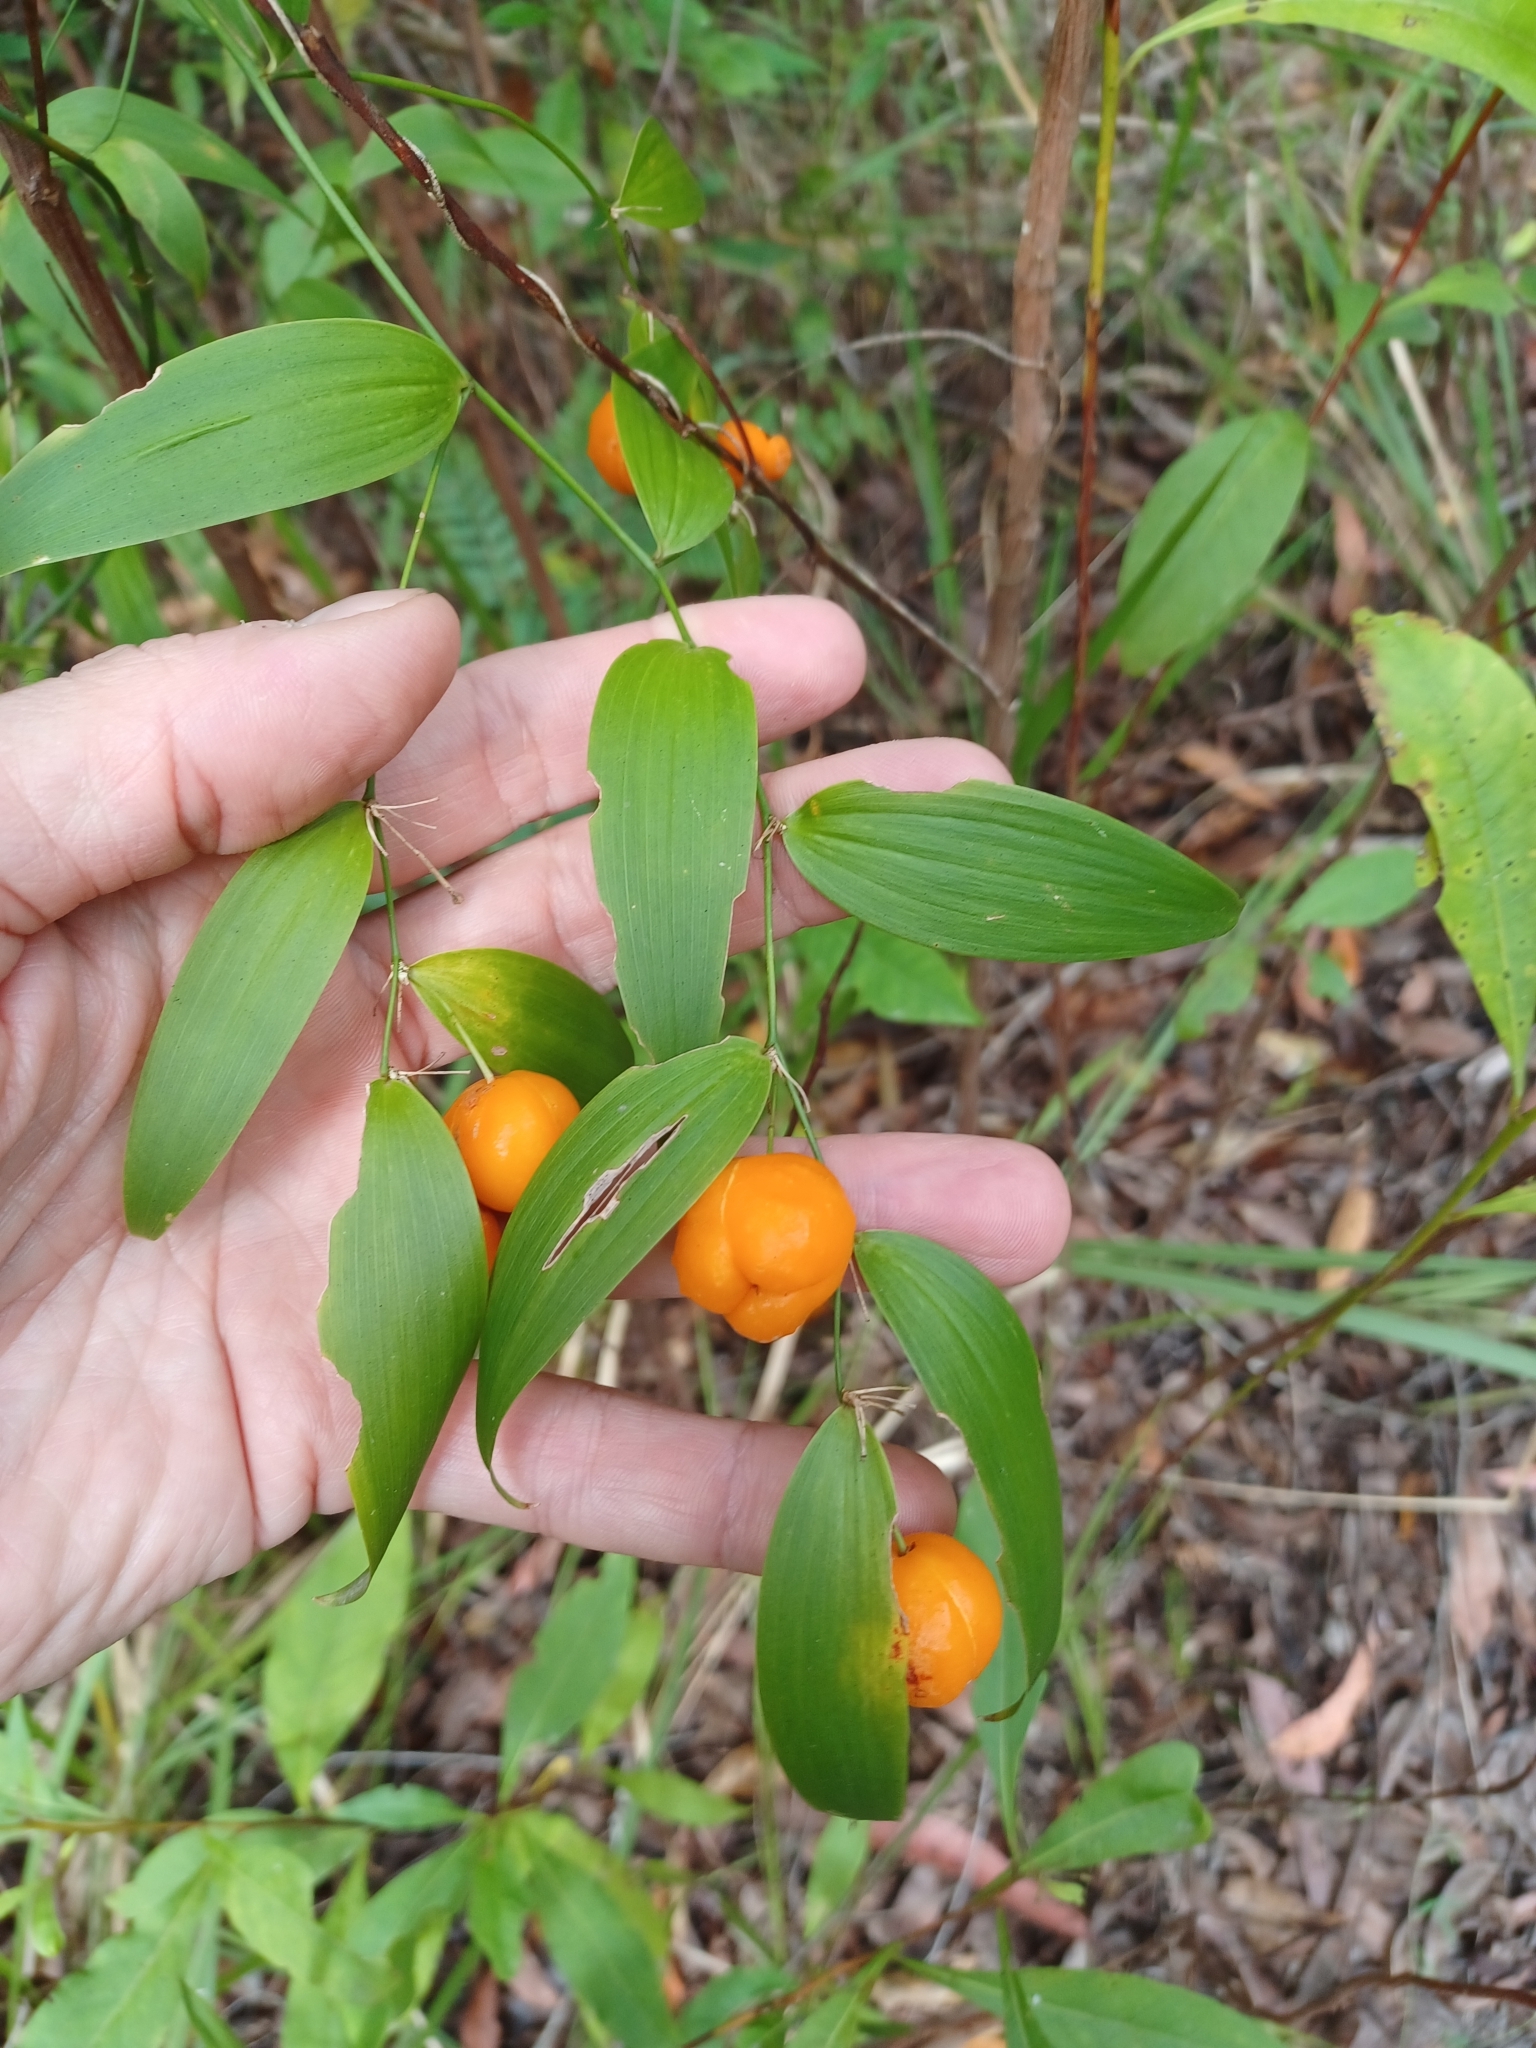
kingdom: Plantae
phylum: Tracheophyta
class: Liliopsida
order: Asparagales
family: Asparagaceae
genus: Eustrephus
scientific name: Eustrephus latifolius
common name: Orangevine
